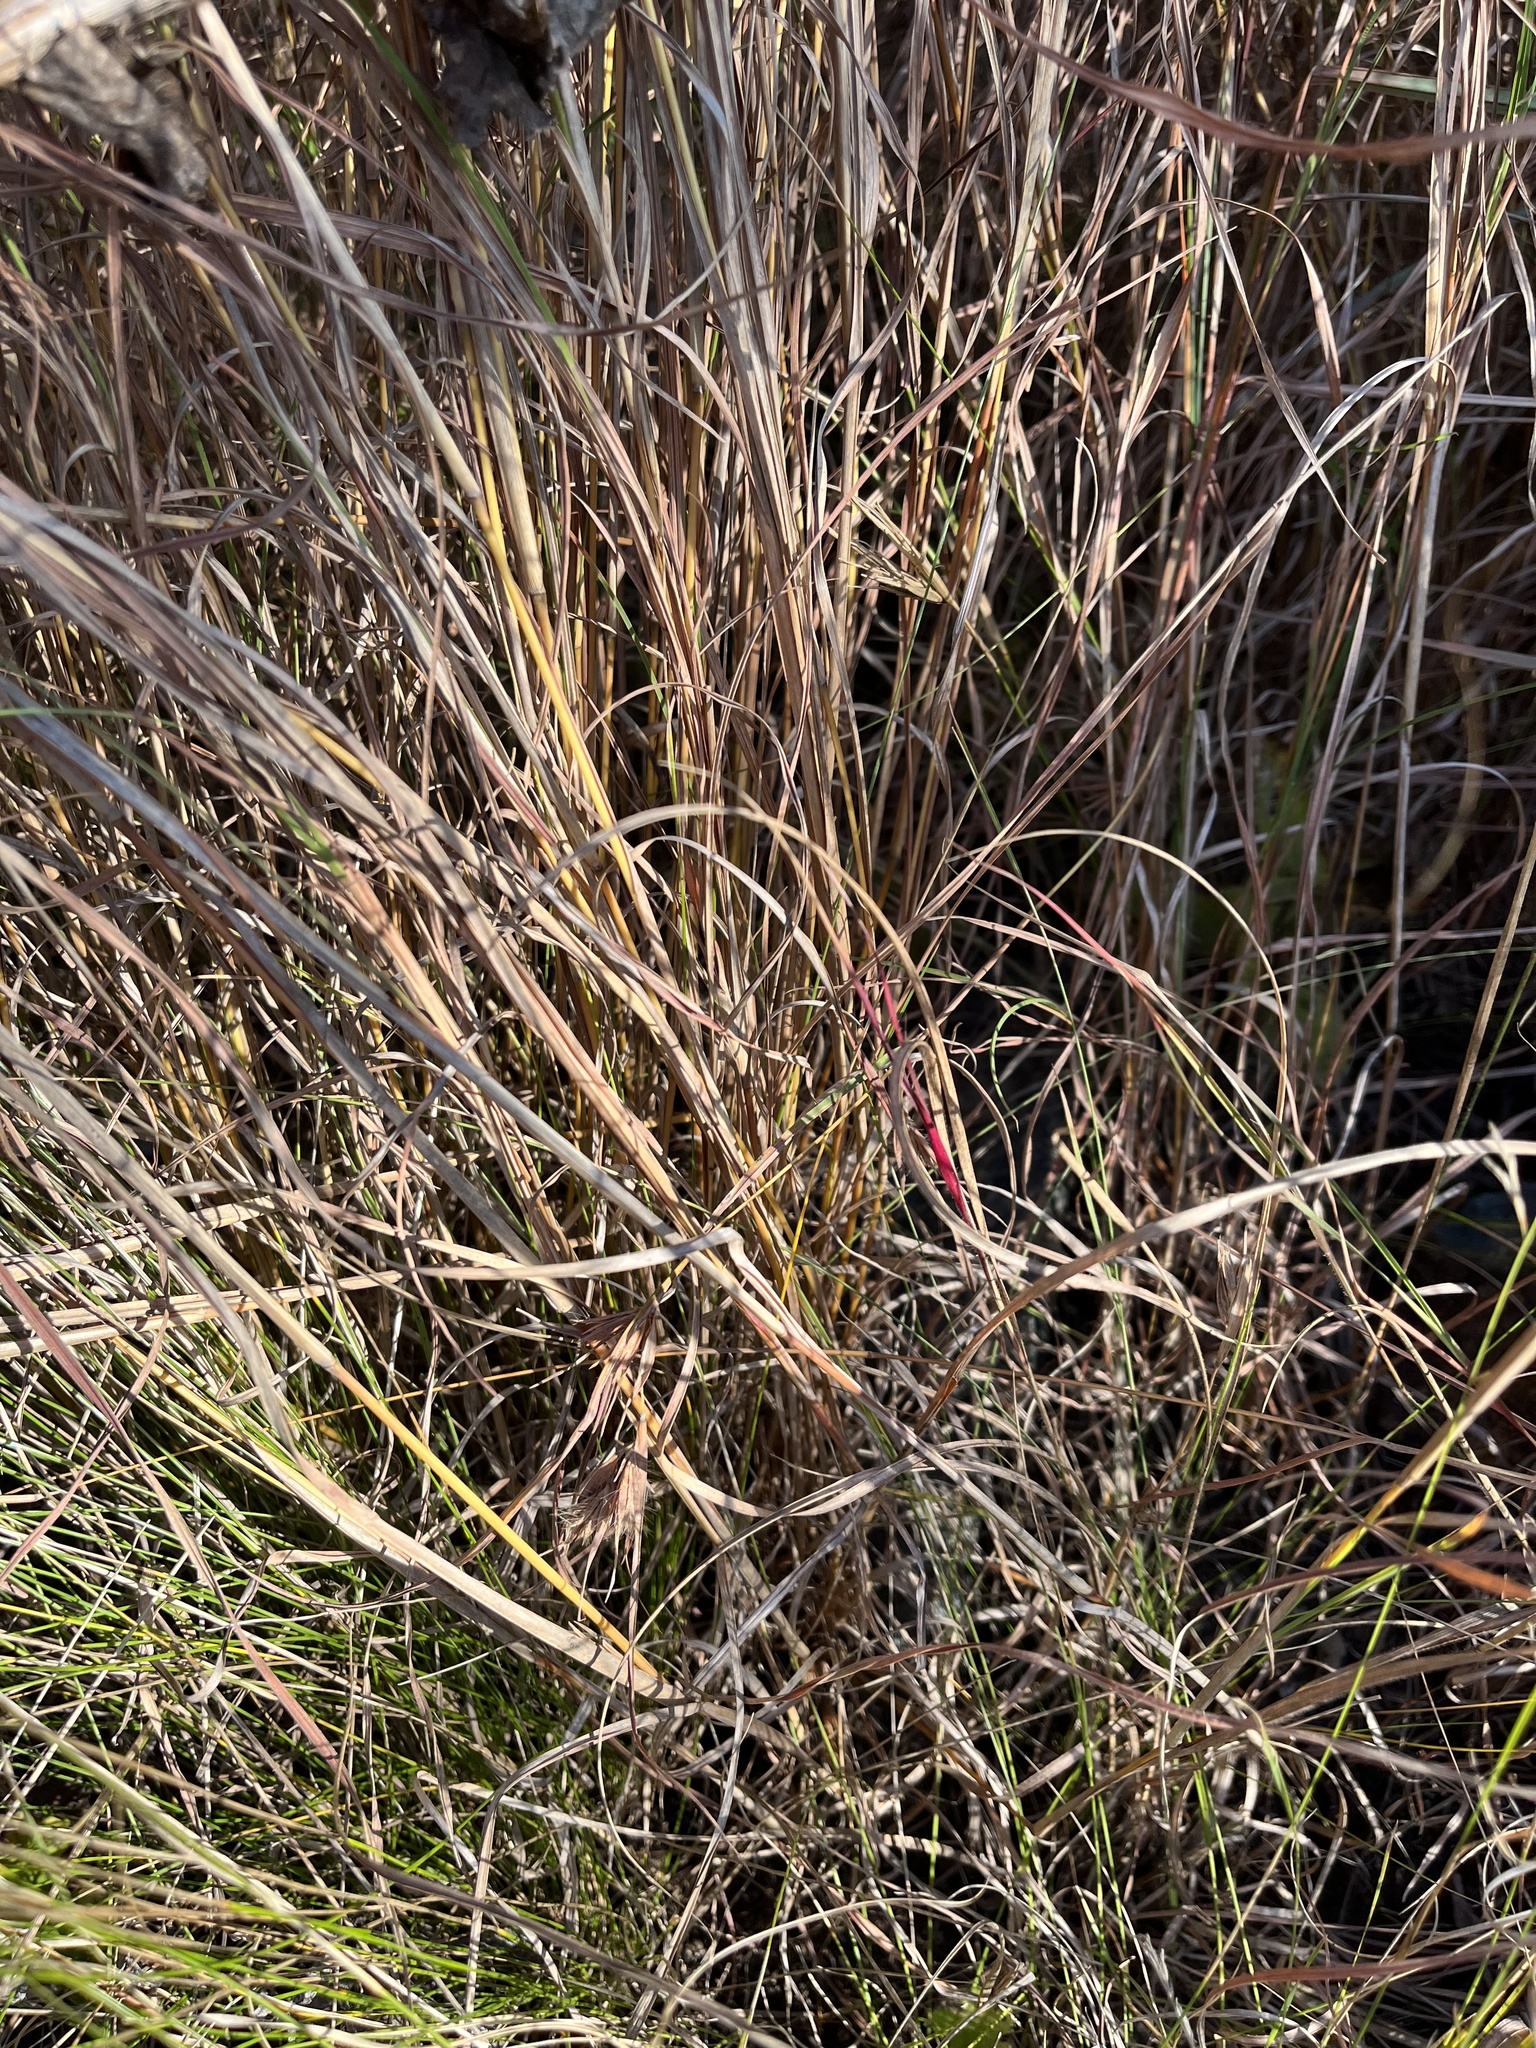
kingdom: Plantae
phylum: Tracheophyta
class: Liliopsida
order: Poales
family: Poaceae
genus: Themeda
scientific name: Themeda triandra
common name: Kangaroo grass
